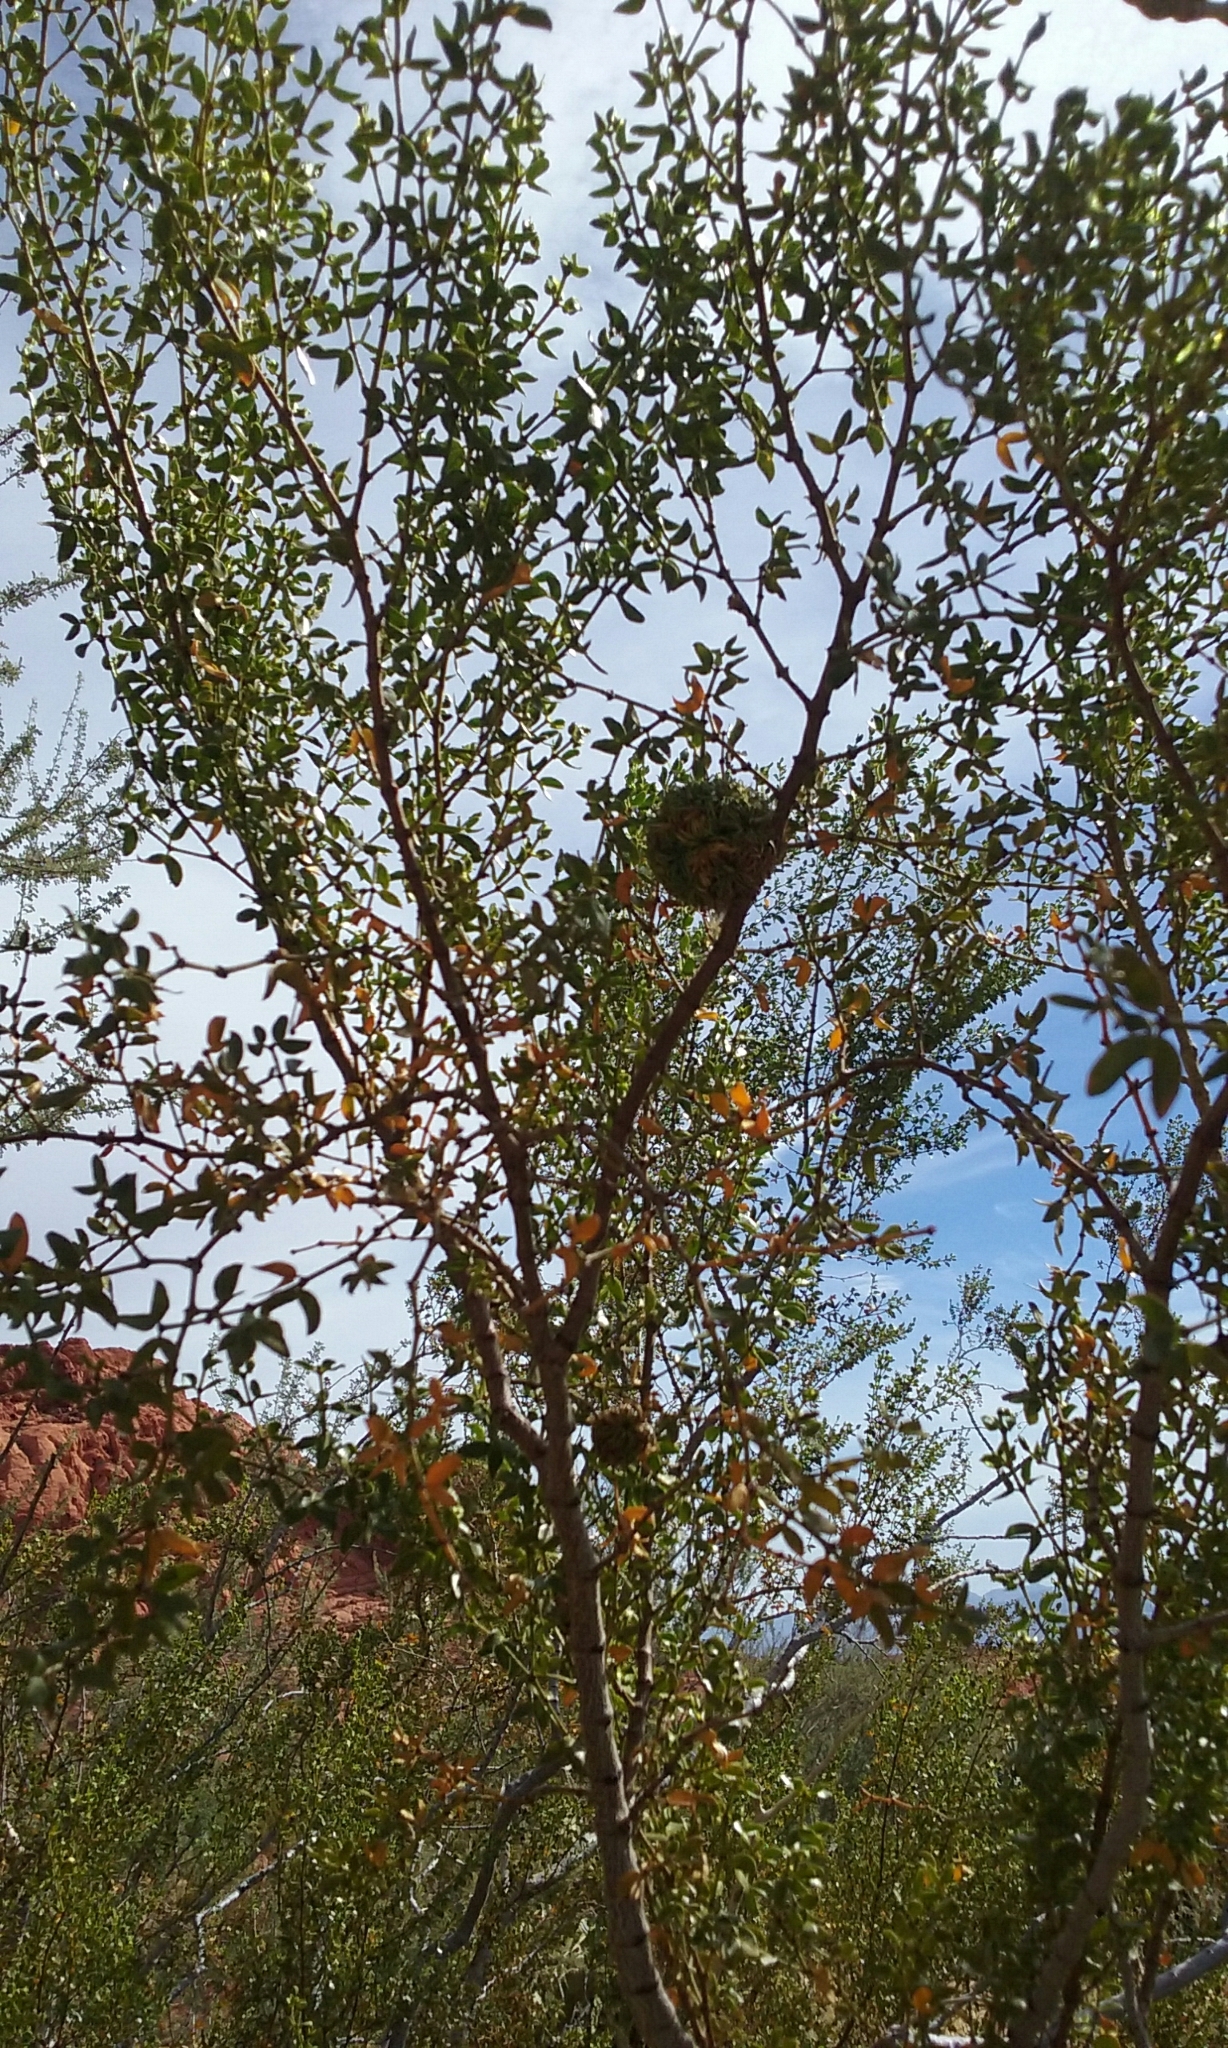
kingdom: Animalia
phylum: Arthropoda
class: Insecta
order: Diptera
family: Cecidomyiidae
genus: Asphondylia
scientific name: Asphondylia auripila
